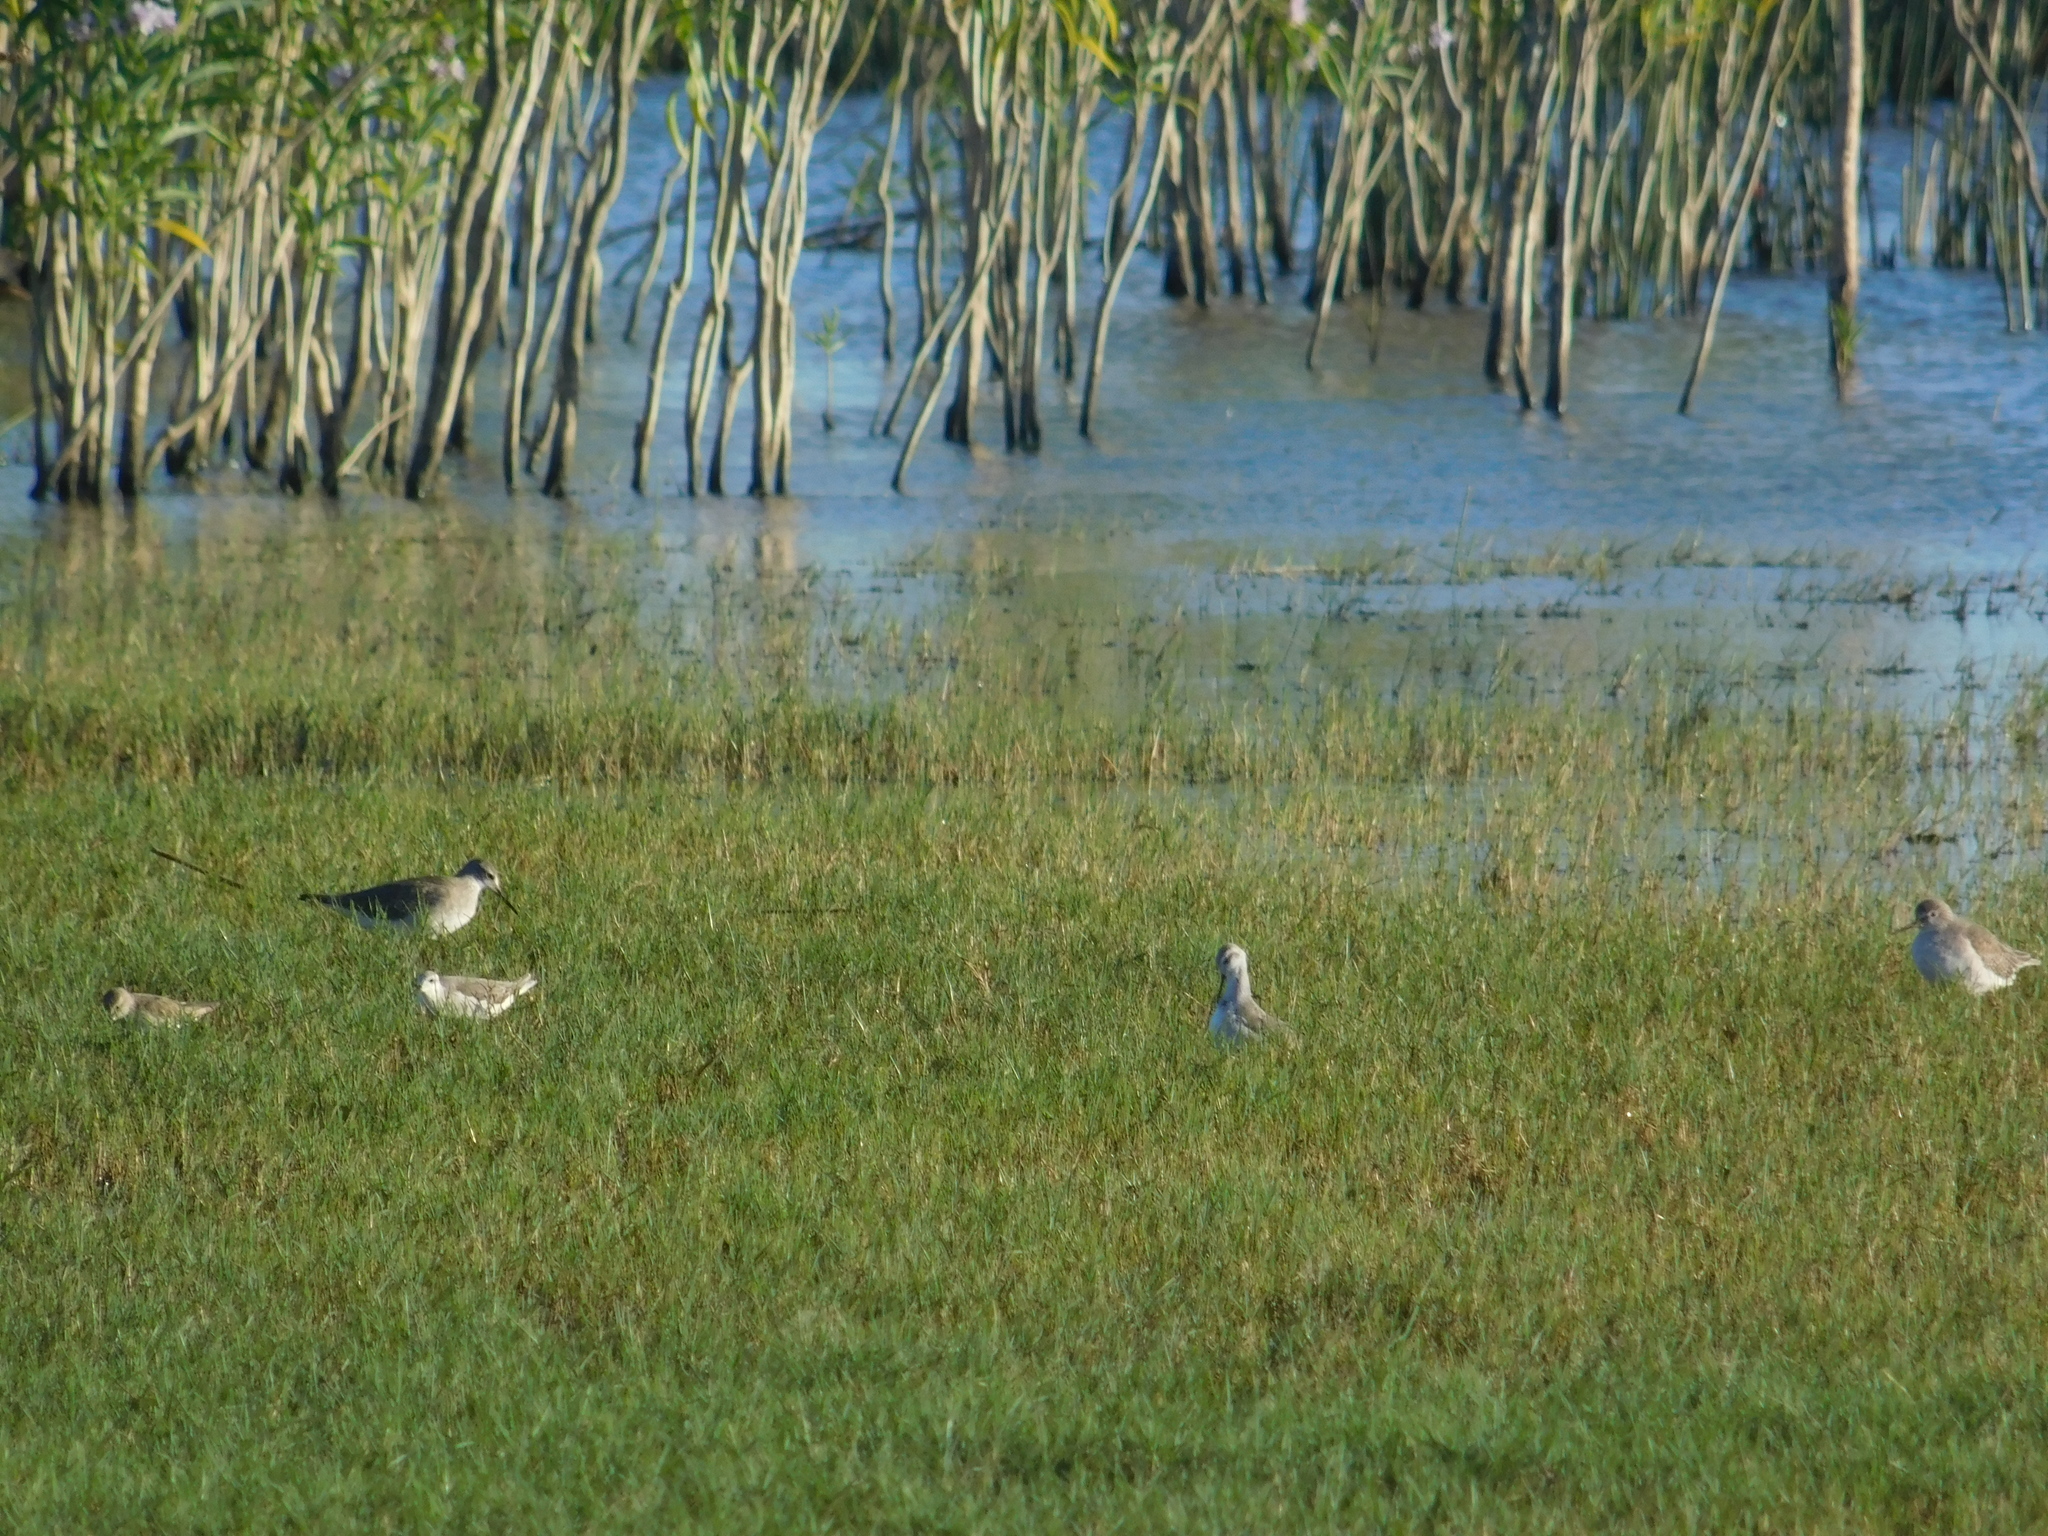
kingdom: Animalia
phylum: Chordata
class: Aves
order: Charadriiformes
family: Scolopacidae
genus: Phalaropus
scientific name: Phalaropus tricolor
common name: Wilson's phalarope
